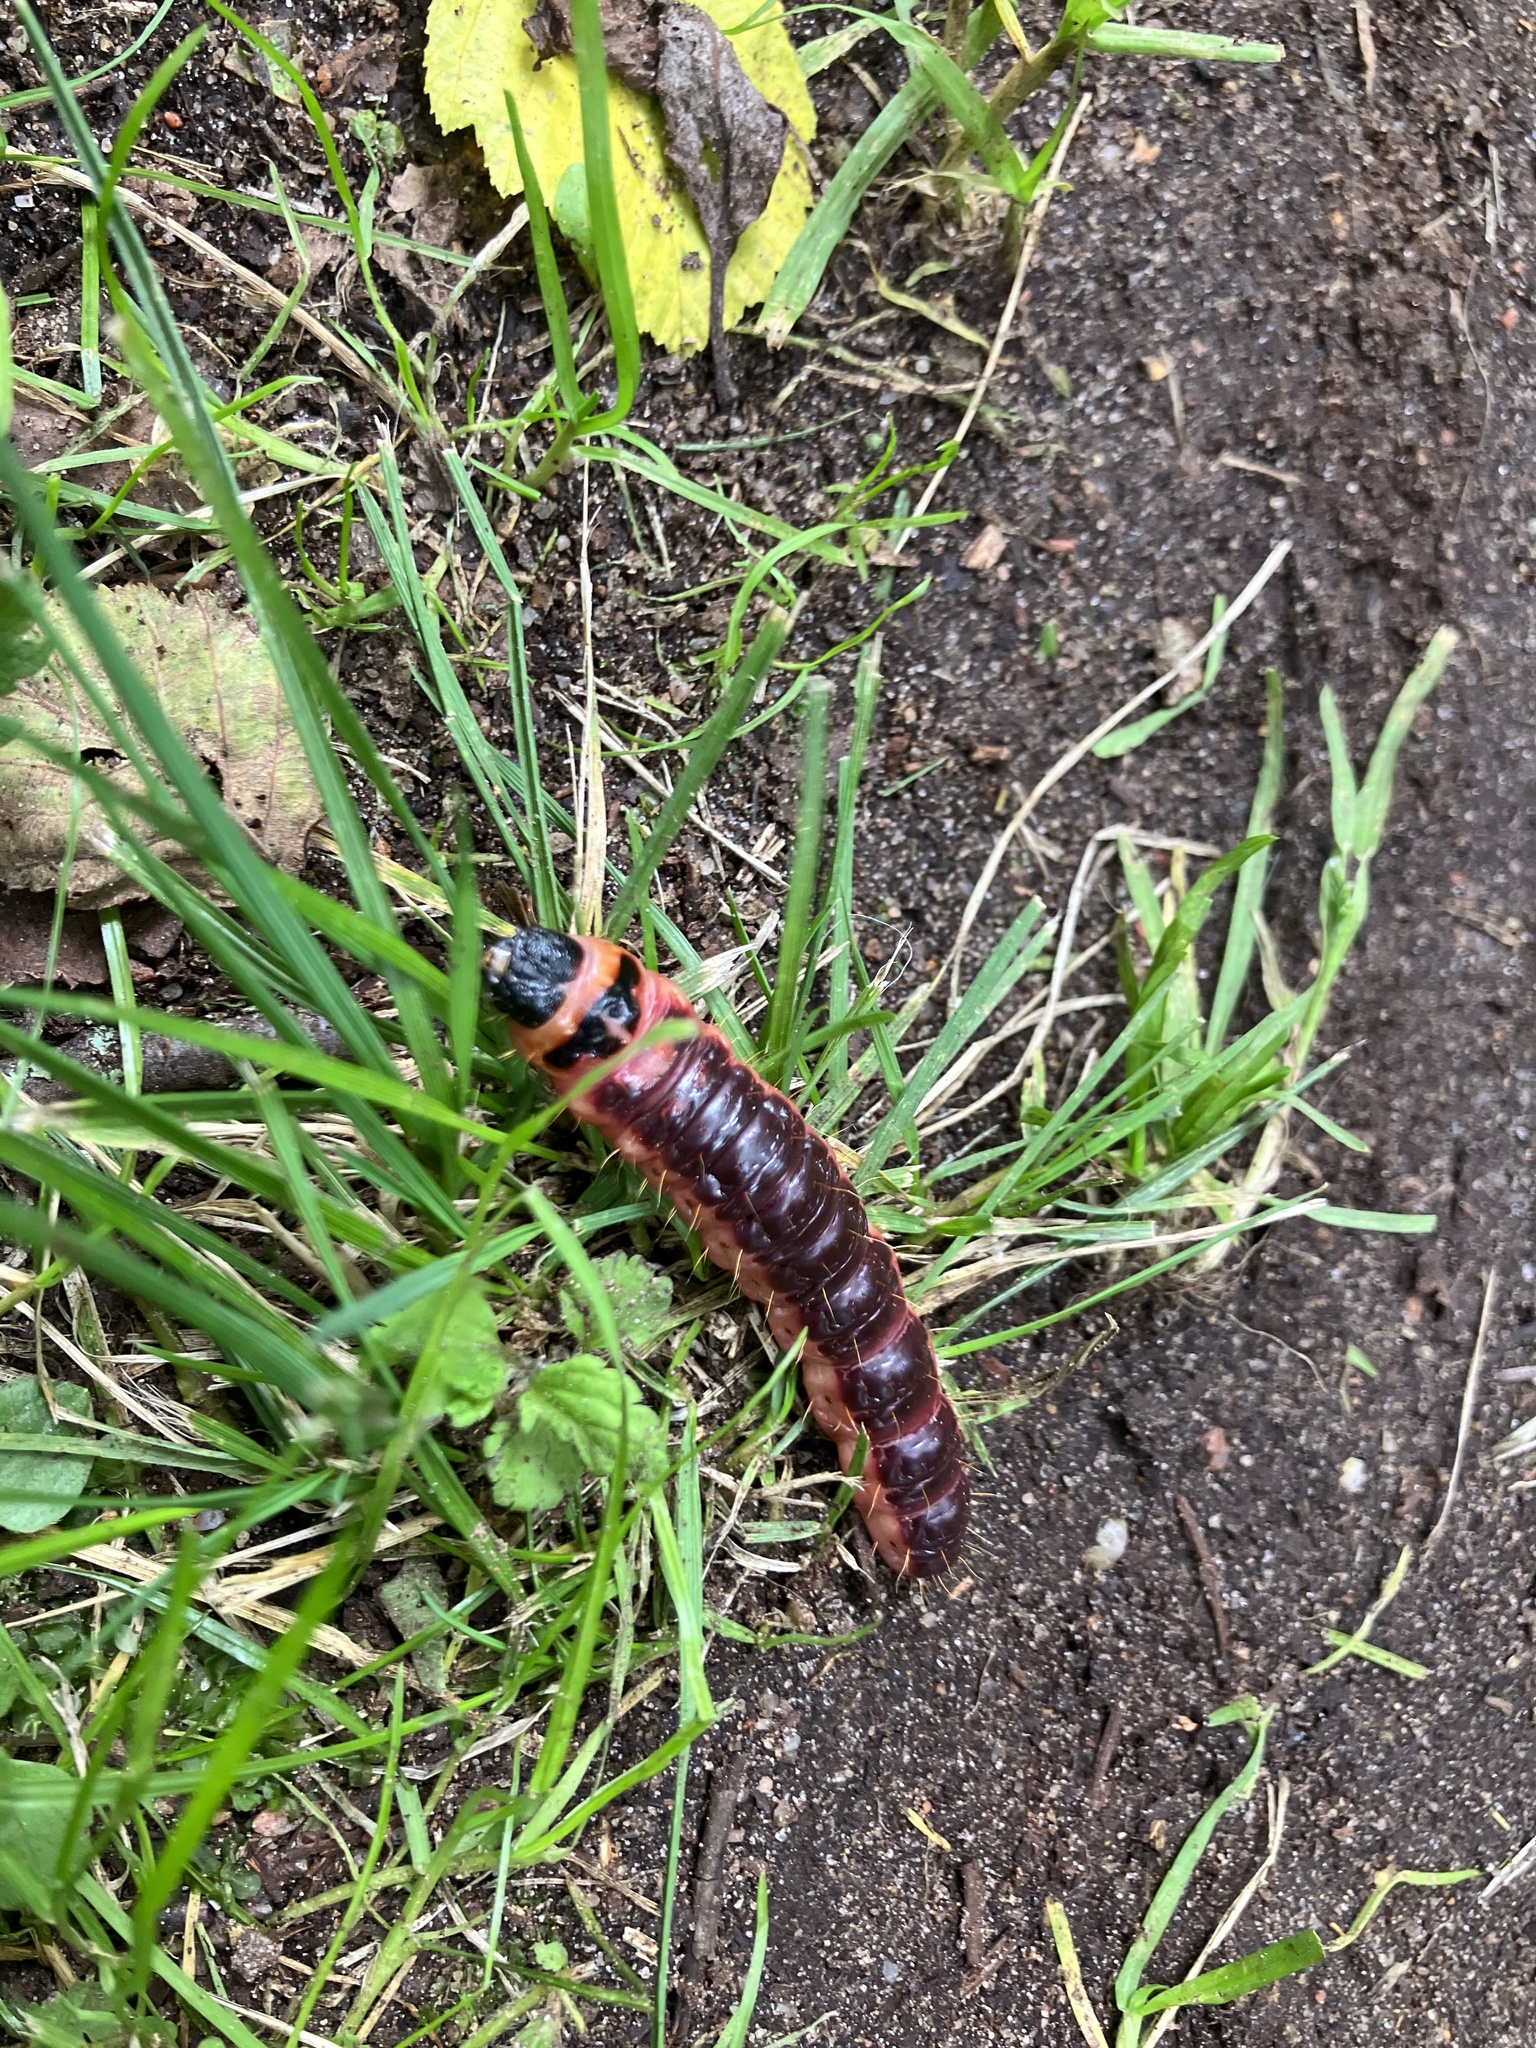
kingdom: Animalia
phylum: Arthropoda
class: Insecta
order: Lepidoptera
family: Cossidae
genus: Cossus
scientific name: Cossus cossus
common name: Goat moth
